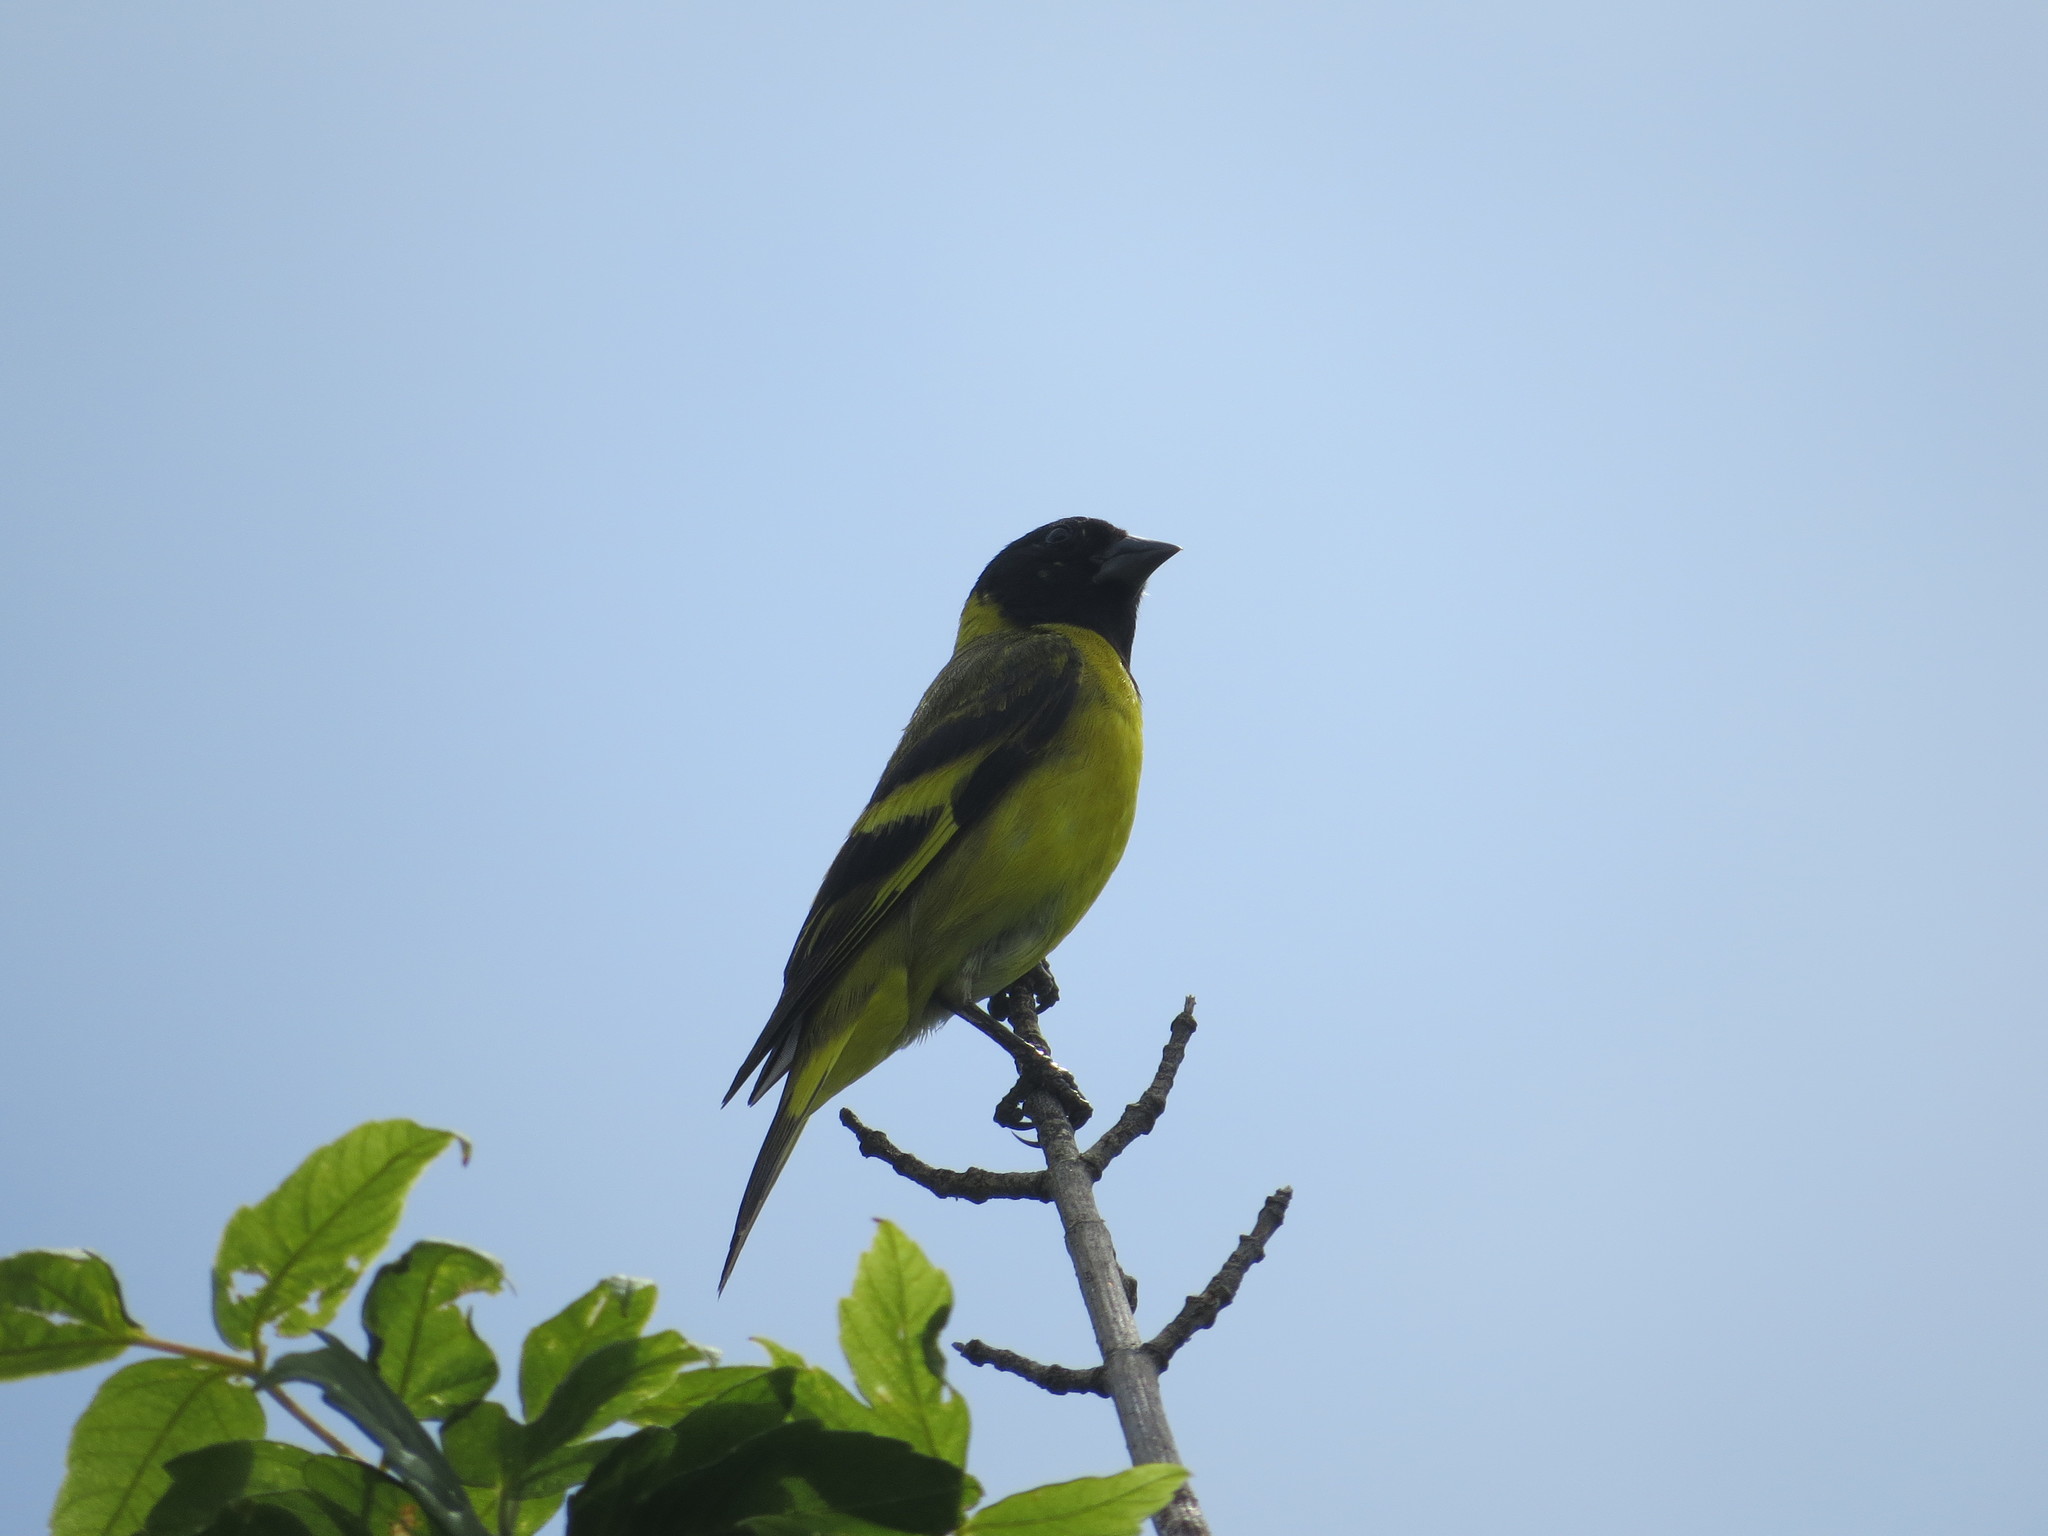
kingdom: Animalia
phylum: Chordata
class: Aves
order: Passeriformes
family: Fringillidae
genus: Spinus
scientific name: Spinus magellanicus
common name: Hooded siskin
